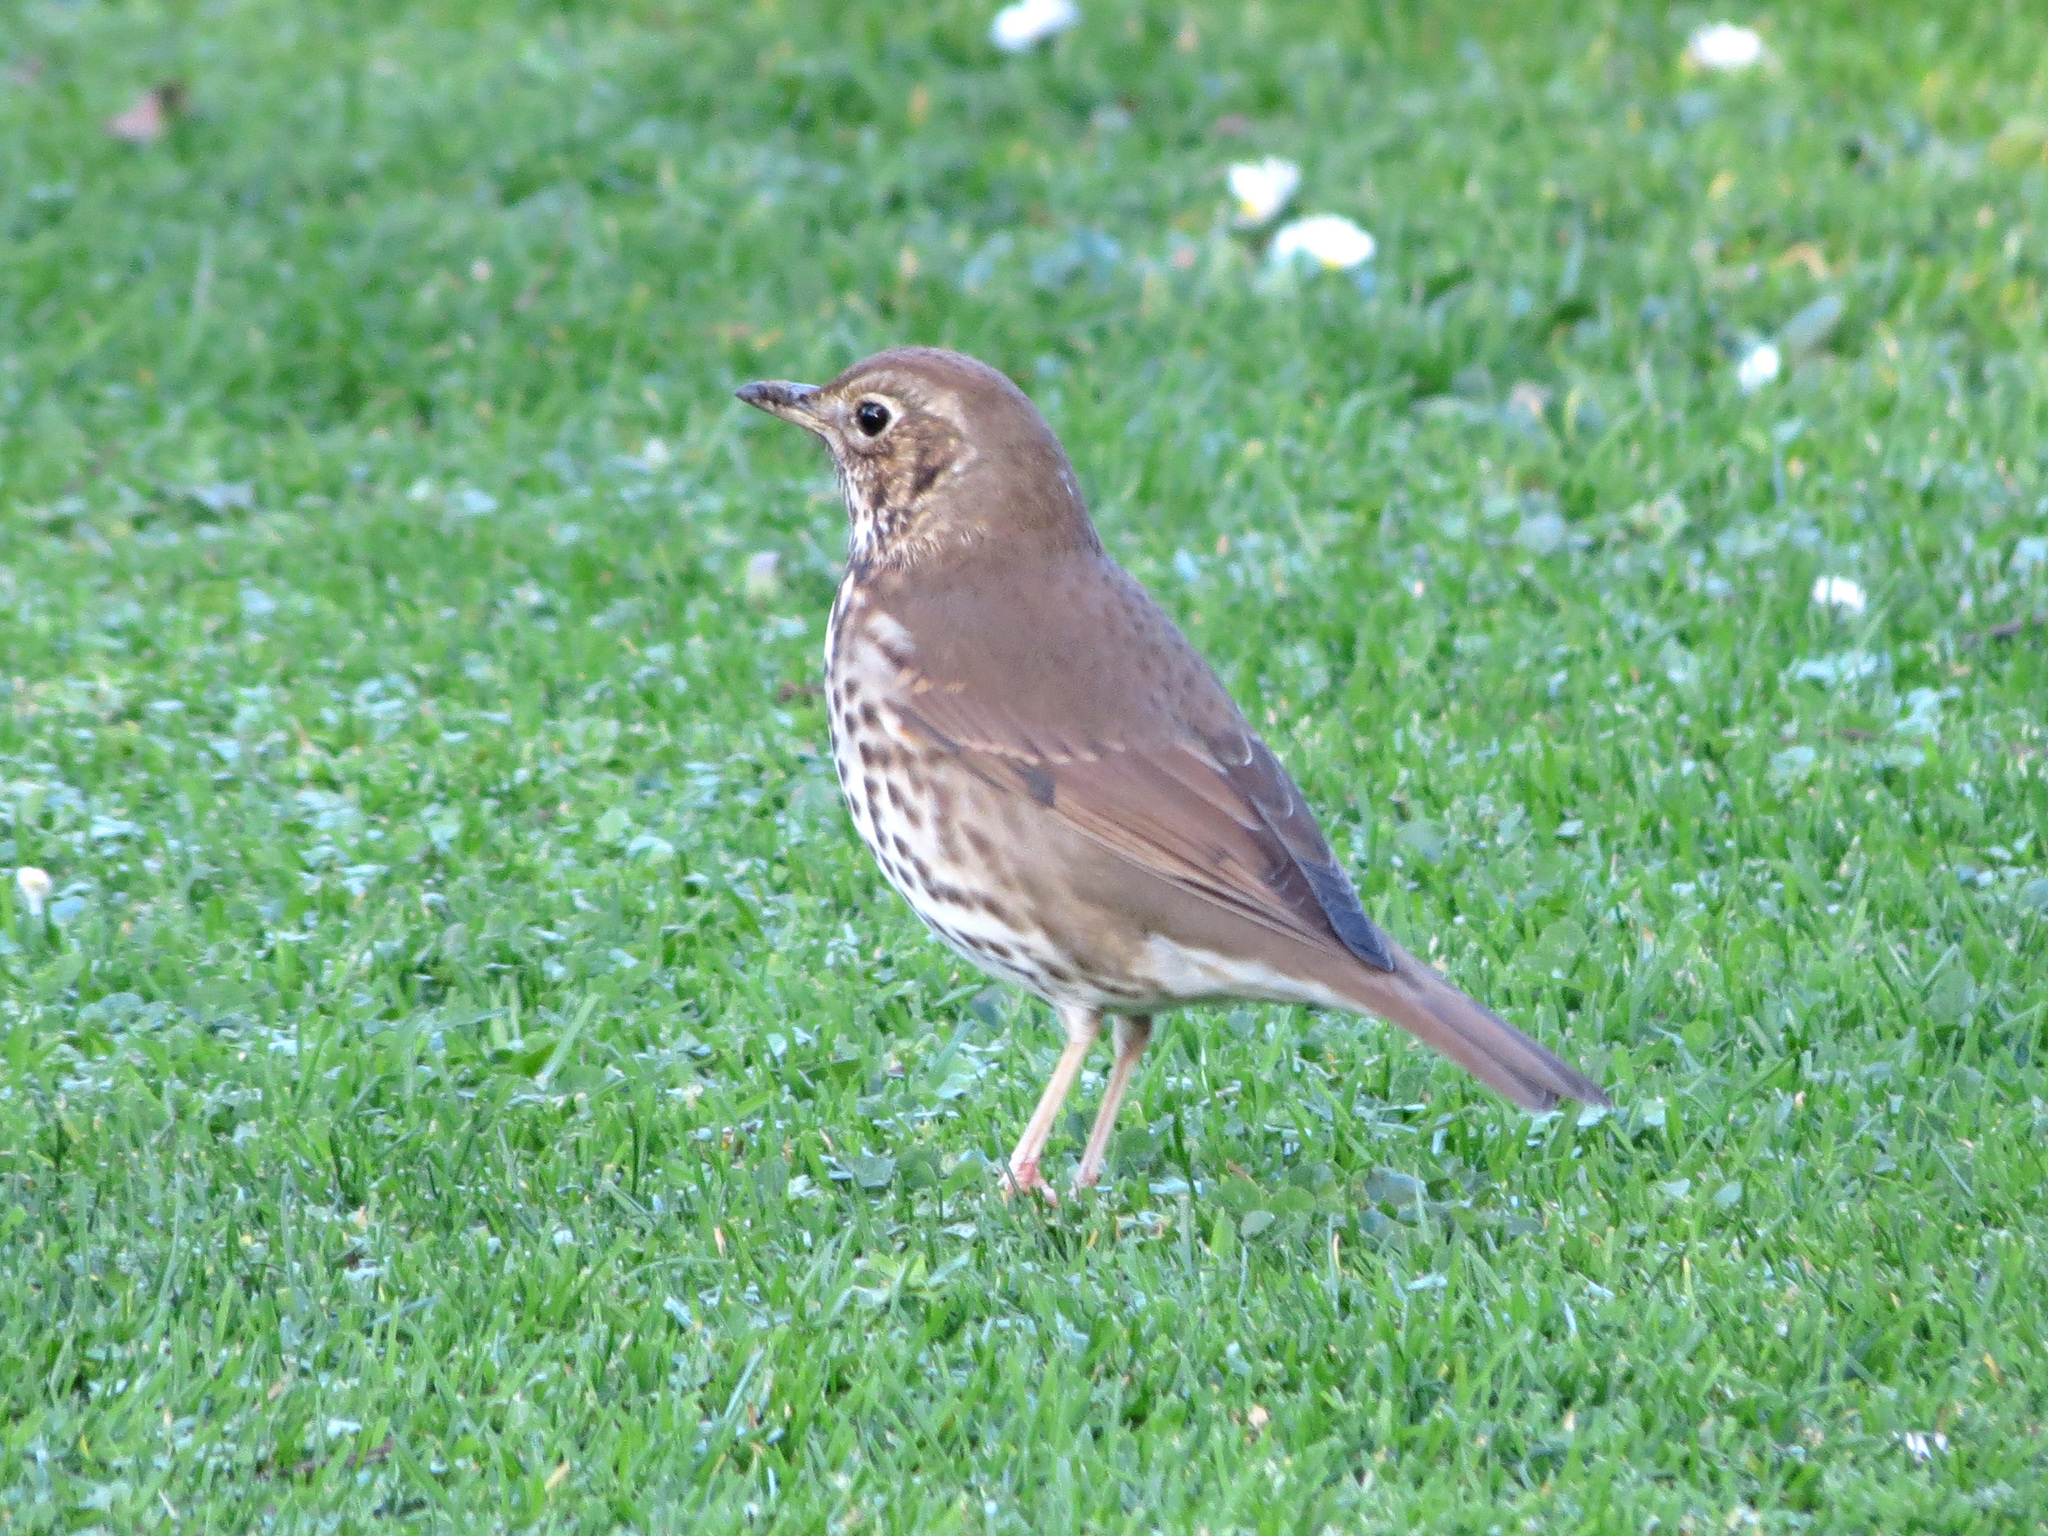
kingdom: Animalia
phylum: Chordata
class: Aves
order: Passeriformes
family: Turdidae
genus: Turdus
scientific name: Turdus philomelos
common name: Song thrush
